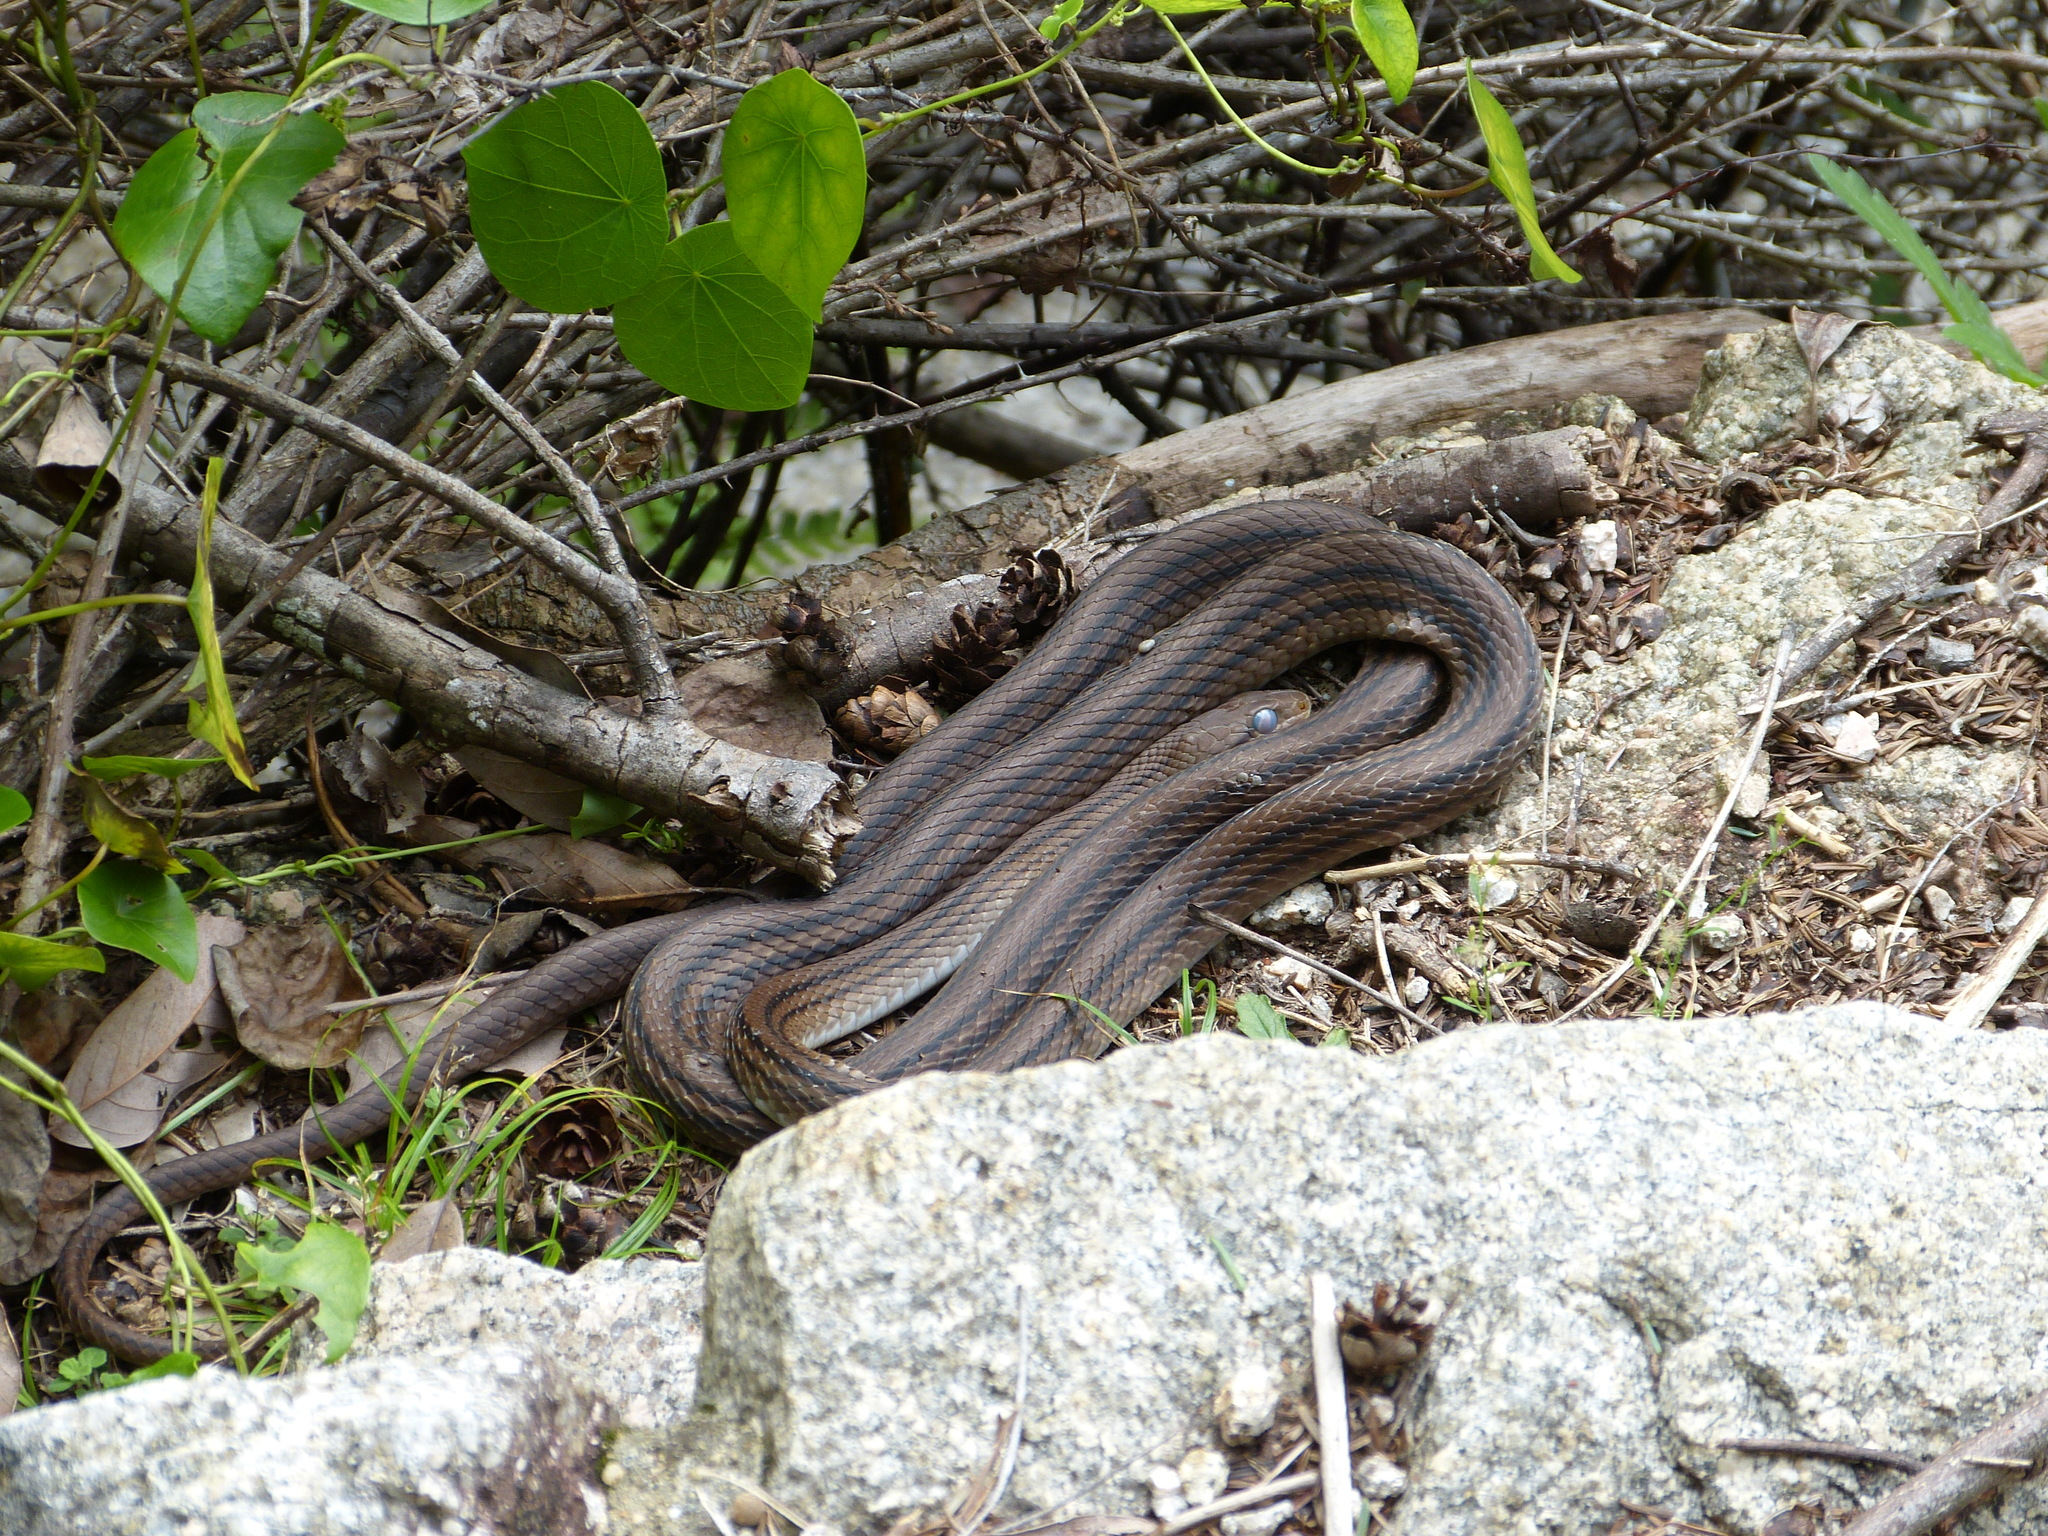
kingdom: Animalia
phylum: Chordata
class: Squamata
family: Colubridae
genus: Elaphe
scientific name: Elaphe quadrivirgata
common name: Japanese four-lined ratsnake
